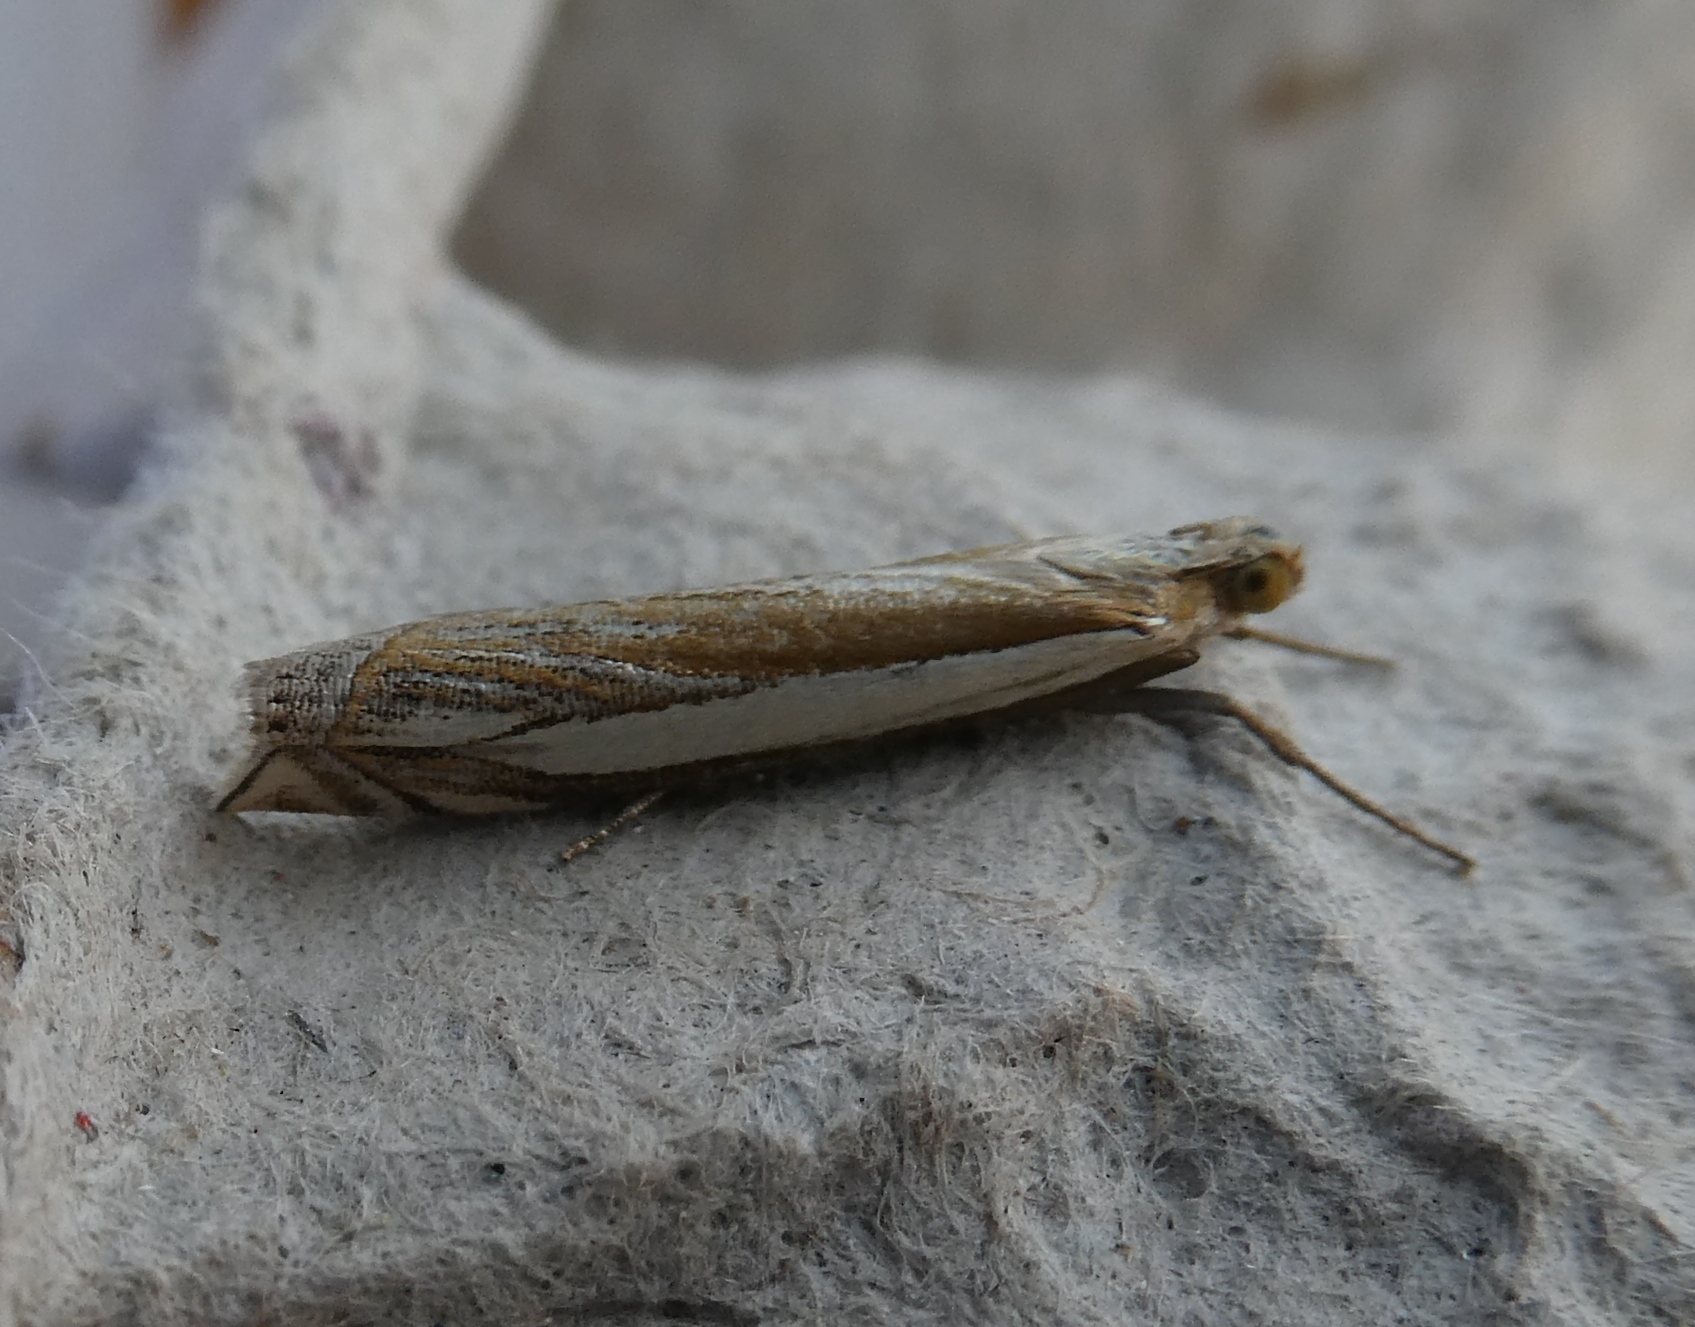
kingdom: Animalia
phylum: Arthropoda
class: Insecta
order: Lepidoptera
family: Crambidae
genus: Crambus
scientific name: Crambus pascuella
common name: Inlaid grass-veneer
